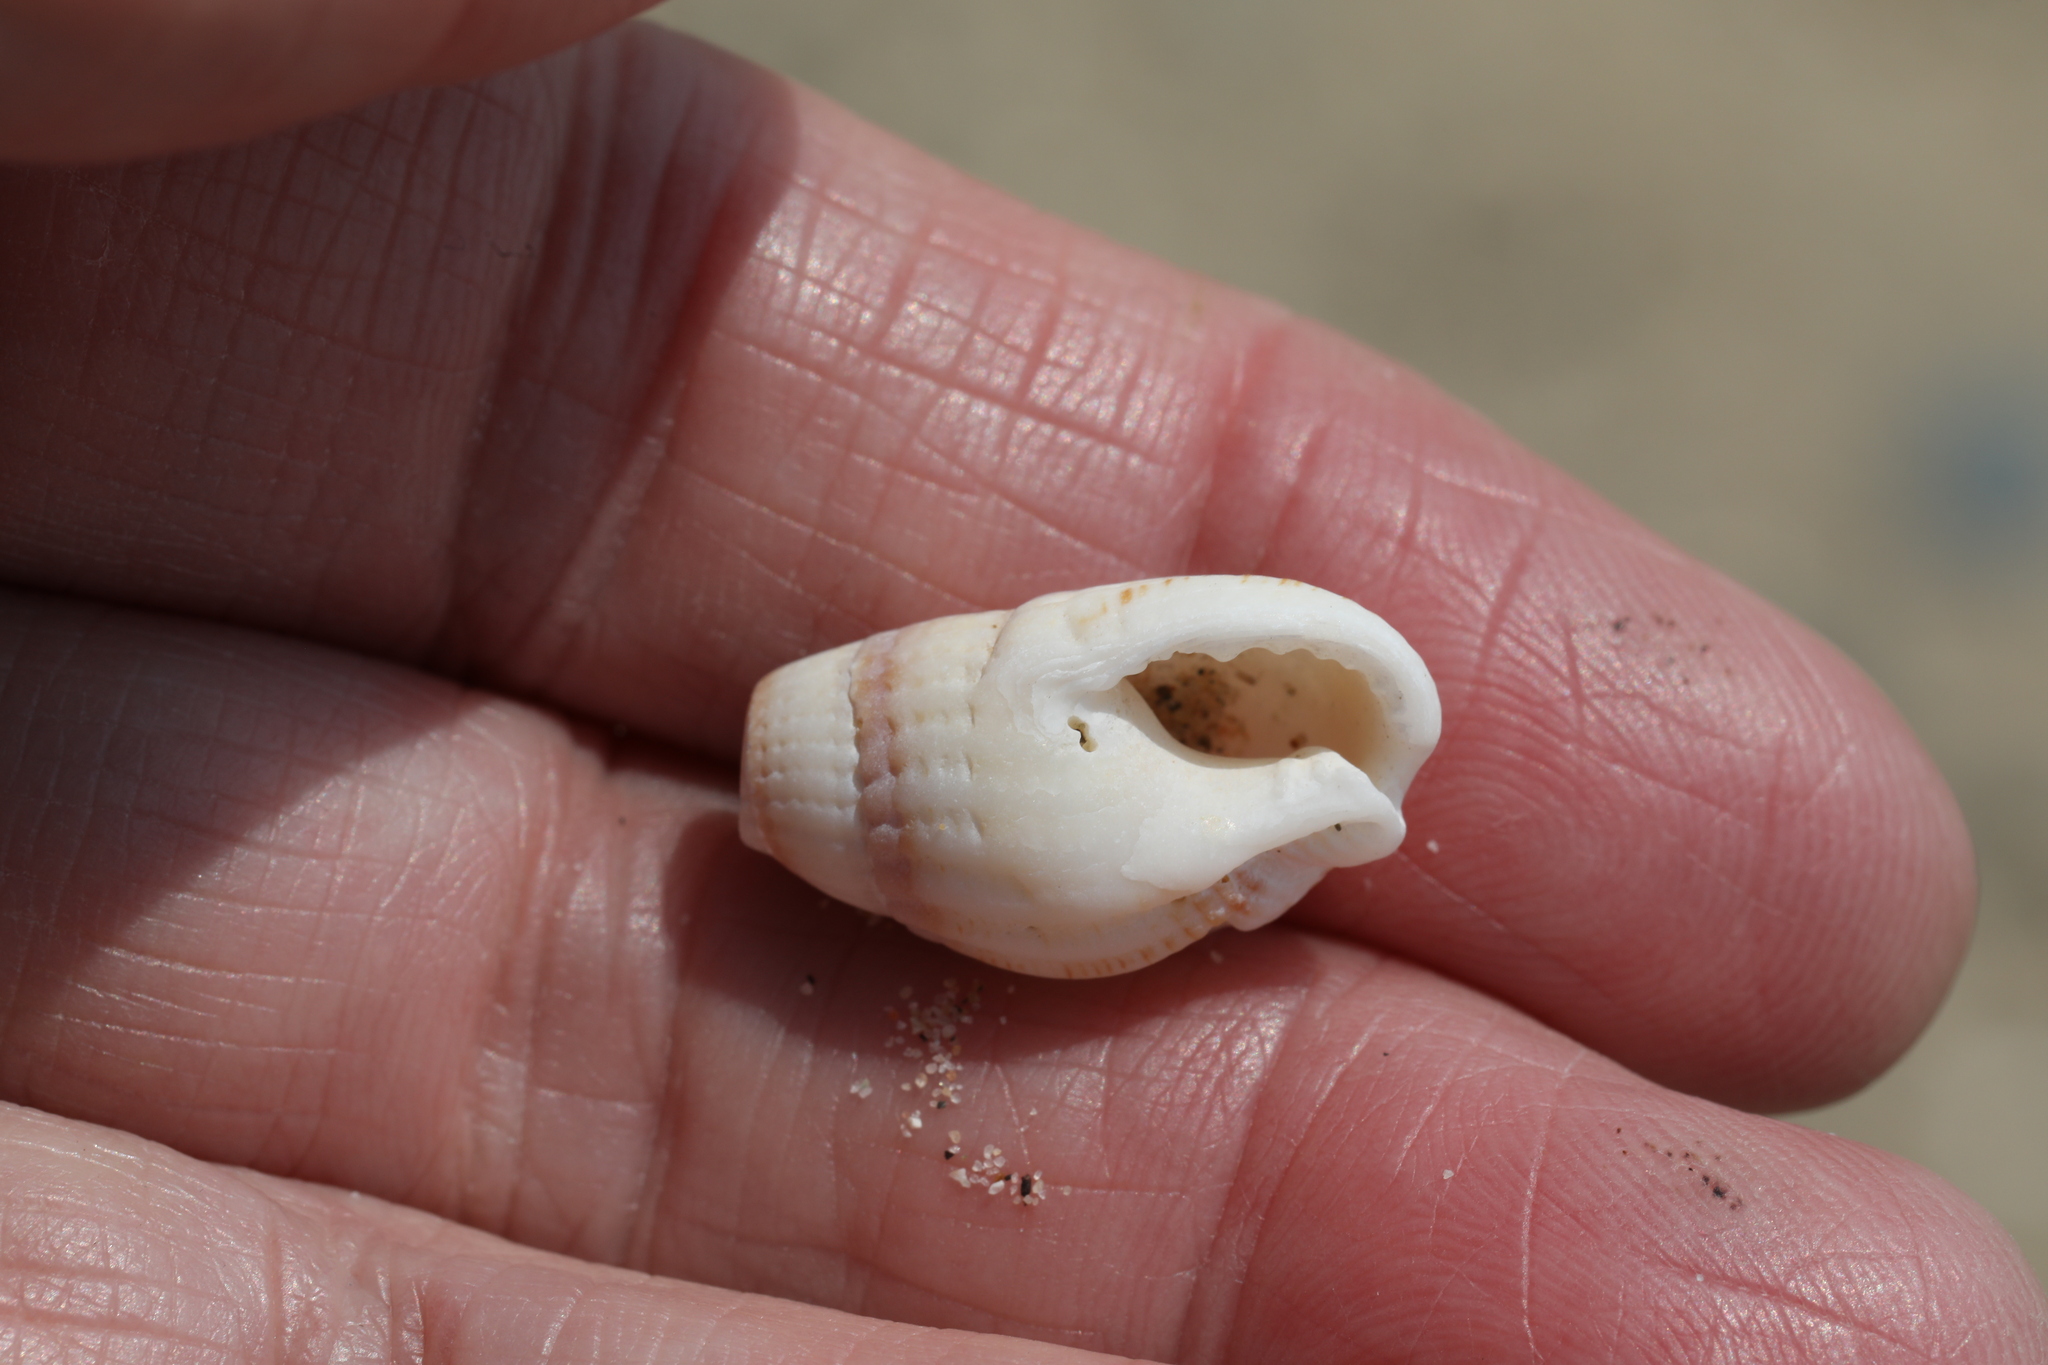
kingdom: Animalia
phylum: Mollusca
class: Gastropoda
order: Neogastropoda
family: Nassariidae
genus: Tritia
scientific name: Tritia reticulata
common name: Netted dog whelk
